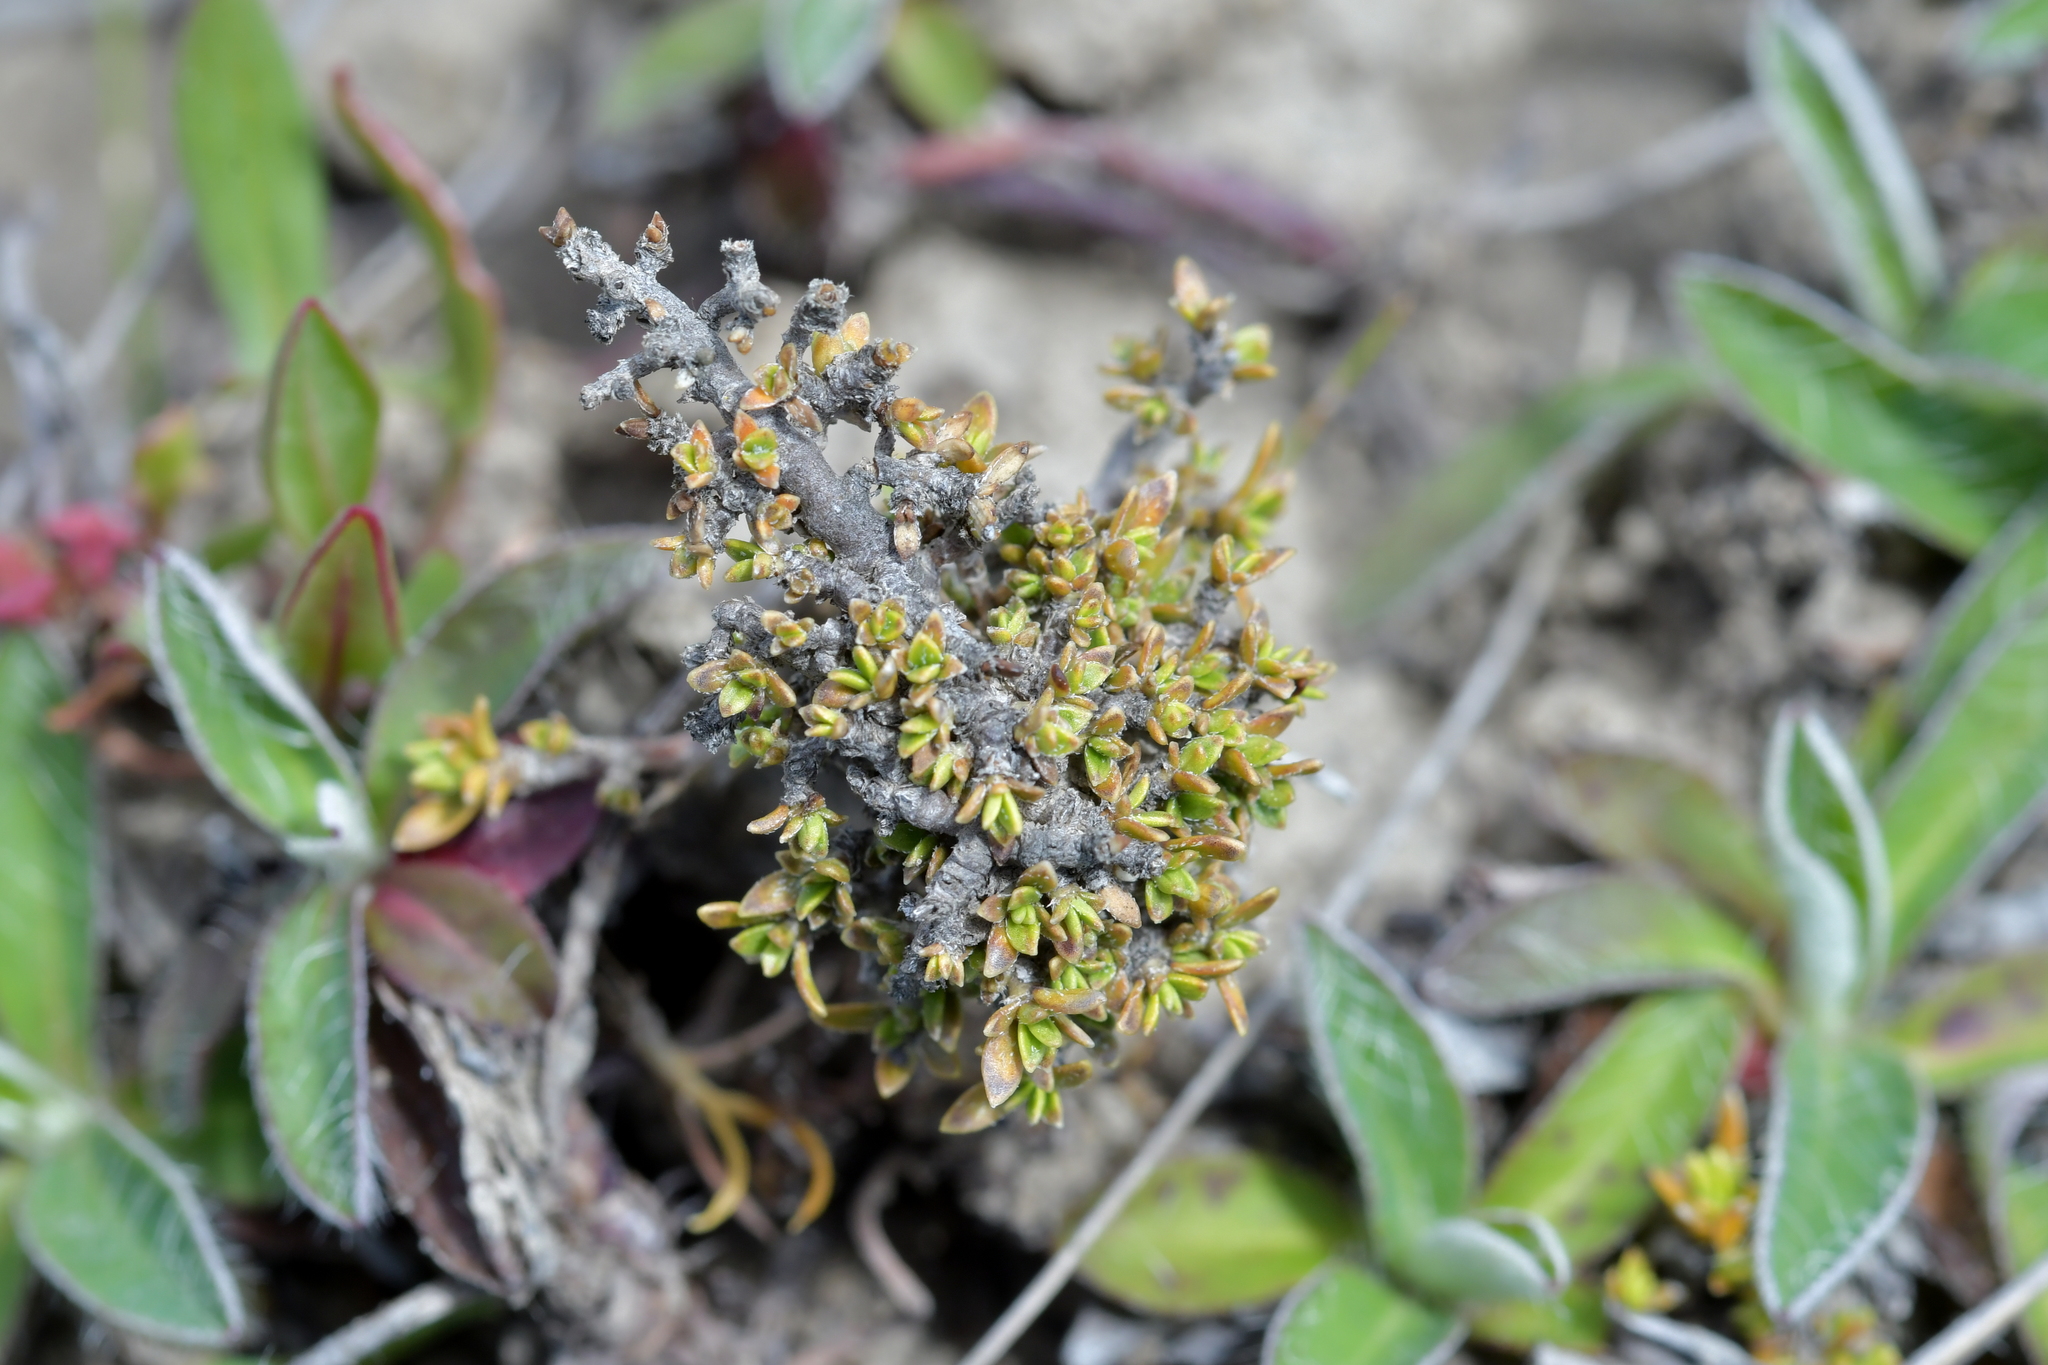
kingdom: Plantae
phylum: Tracheophyta
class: Magnoliopsida
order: Gentianales
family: Rubiaceae
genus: Coprosma
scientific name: Coprosma petriei
